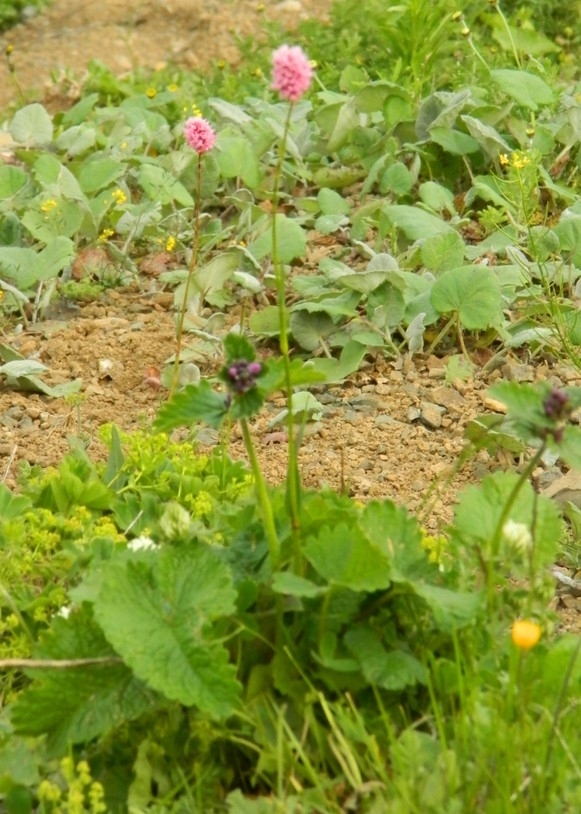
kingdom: Plantae
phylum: Tracheophyta
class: Magnoliopsida
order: Caryophyllales
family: Polygonaceae
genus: Bistorta
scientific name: Bistorta carnea
